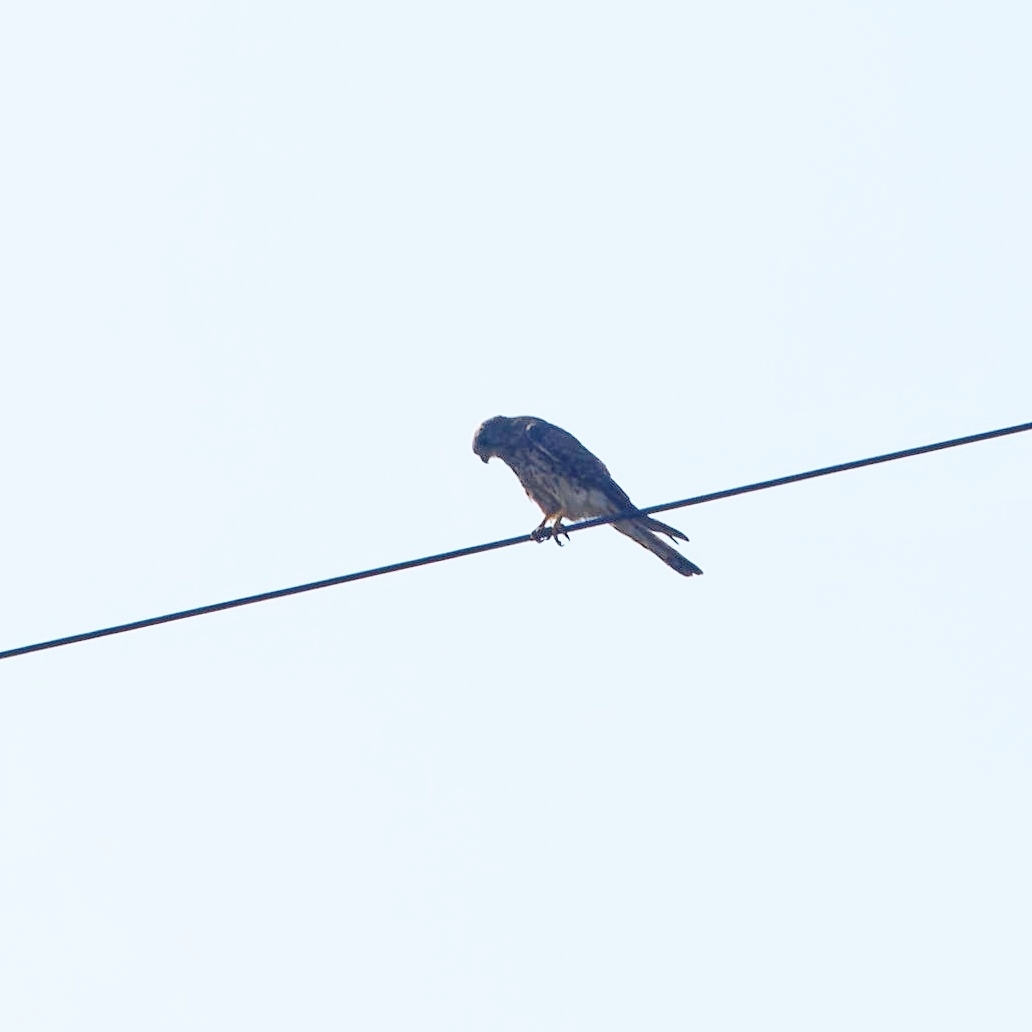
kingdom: Animalia
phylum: Chordata
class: Aves
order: Falconiformes
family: Falconidae
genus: Falco
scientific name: Falco tinnunculus
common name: Common kestrel
